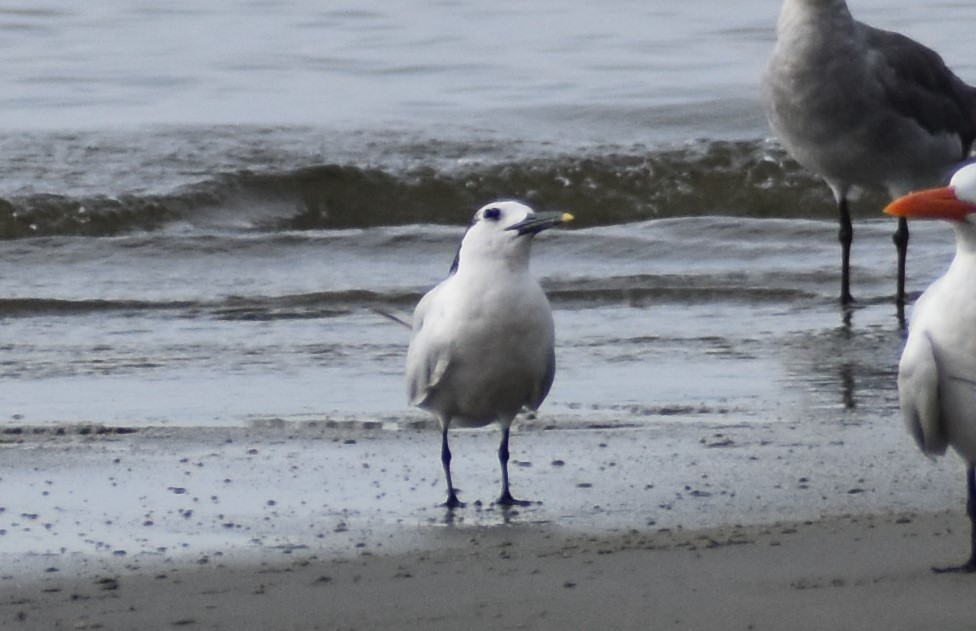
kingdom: Animalia
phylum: Chordata
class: Aves
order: Charadriiformes
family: Laridae
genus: Thalasseus
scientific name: Thalasseus sandvicensis
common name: Sandwich tern
